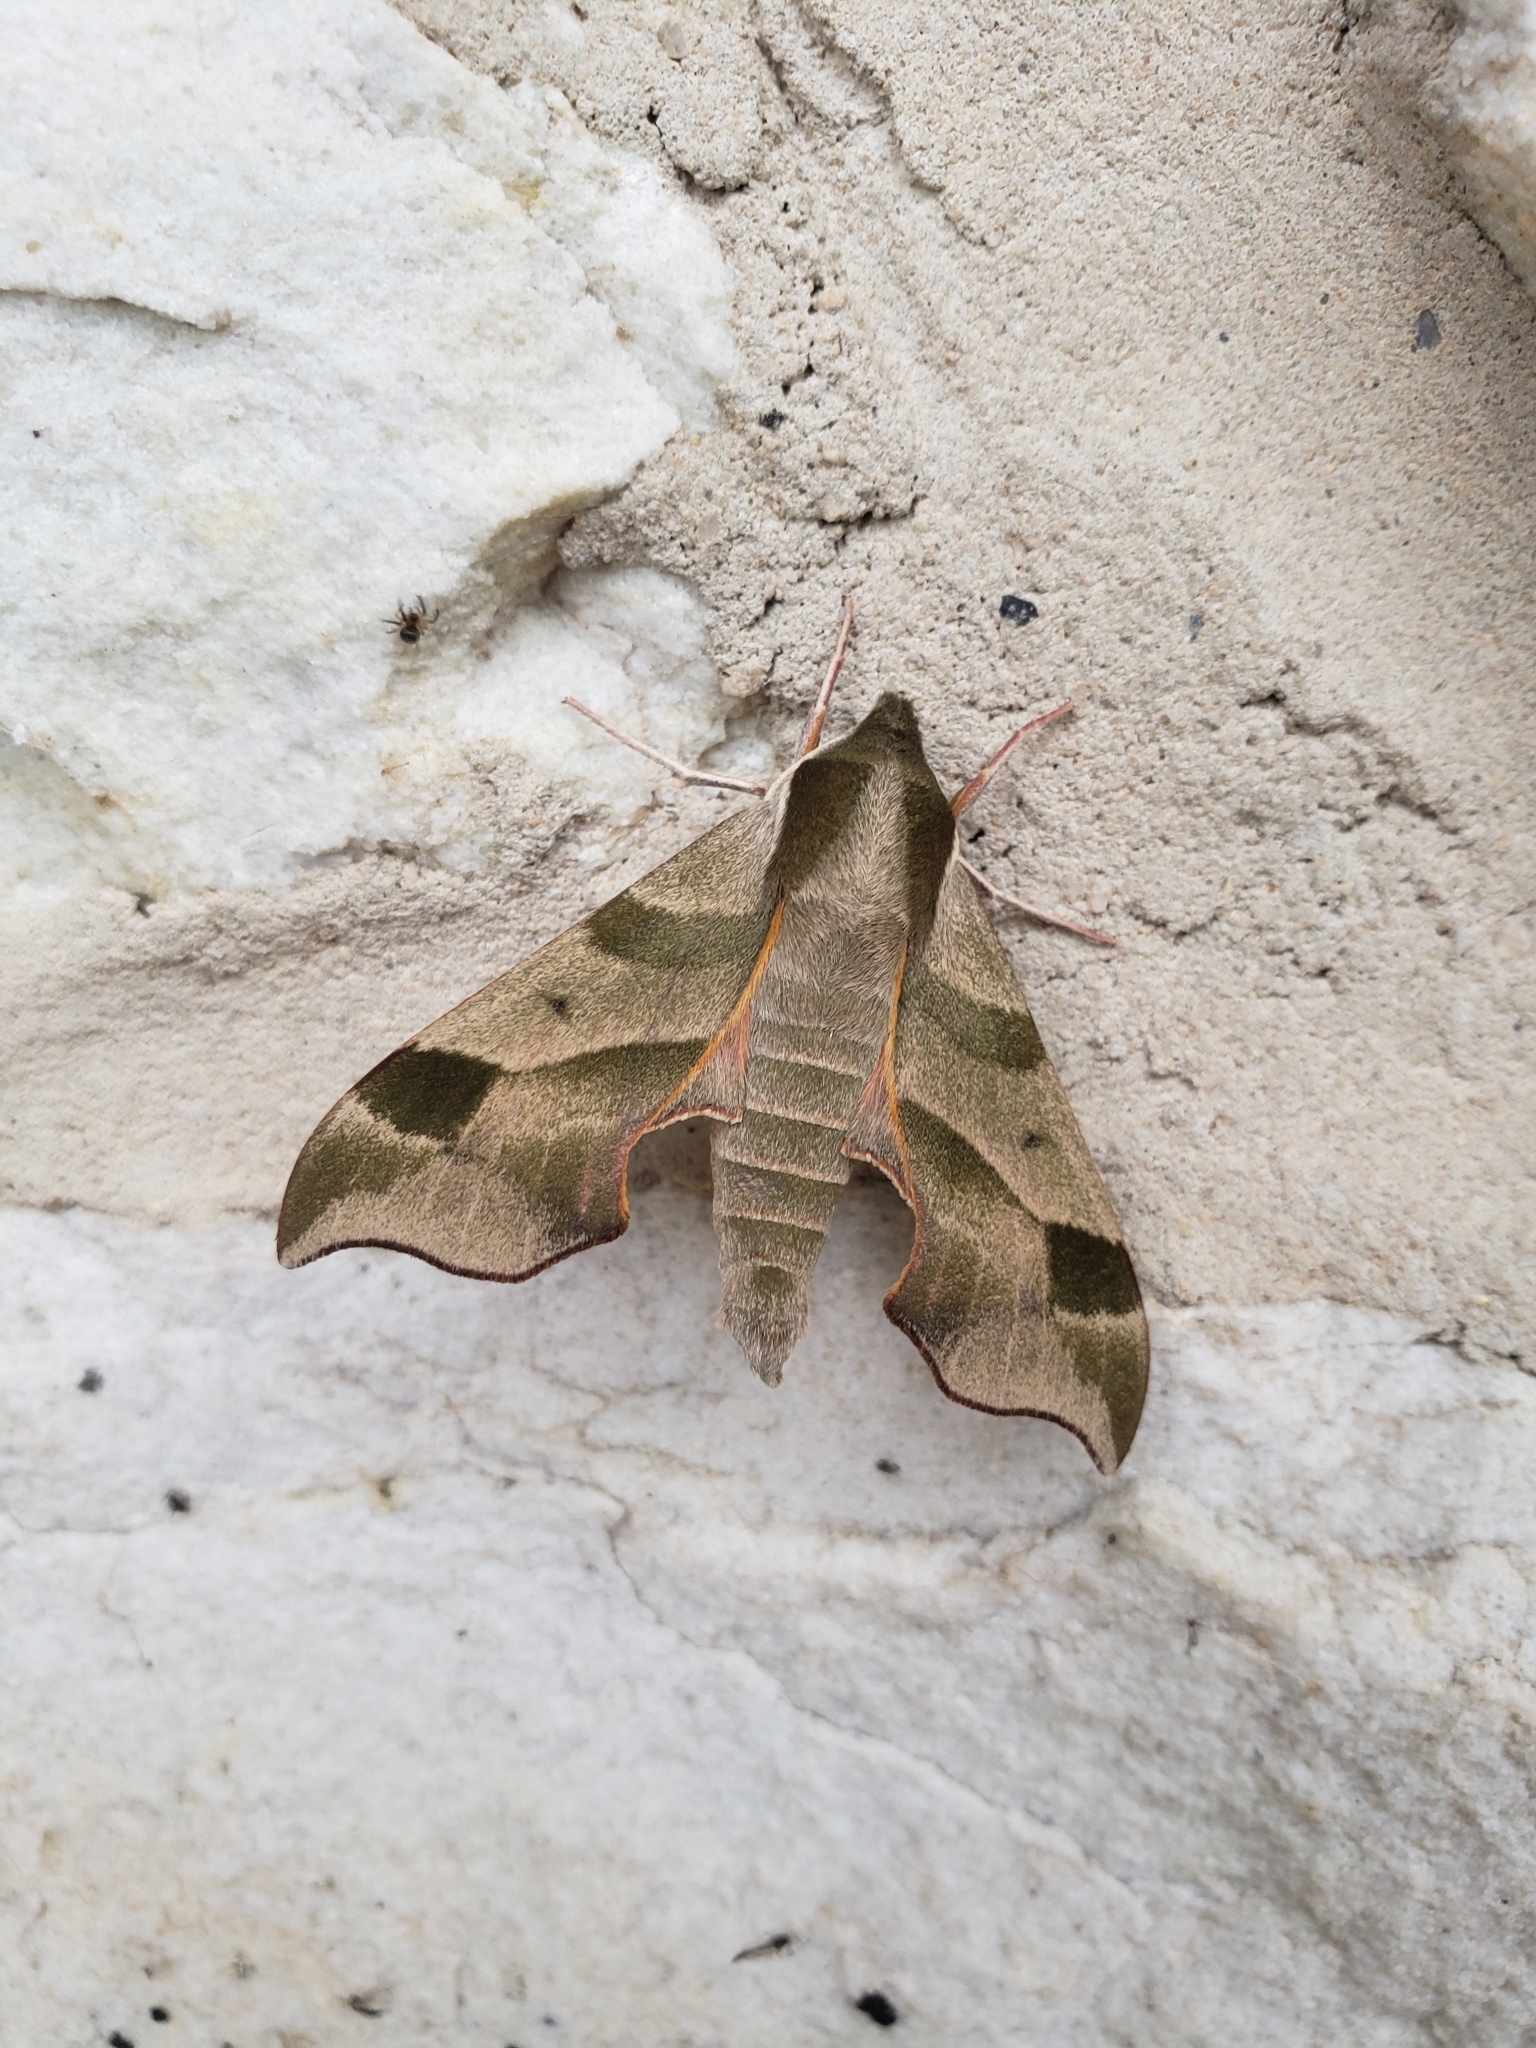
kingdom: Animalia
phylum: Arthropoda
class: Insecta
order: Lepidoptera
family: Sphingidae
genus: Darapsa
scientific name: Darapsa myron
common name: Hog sphinx
